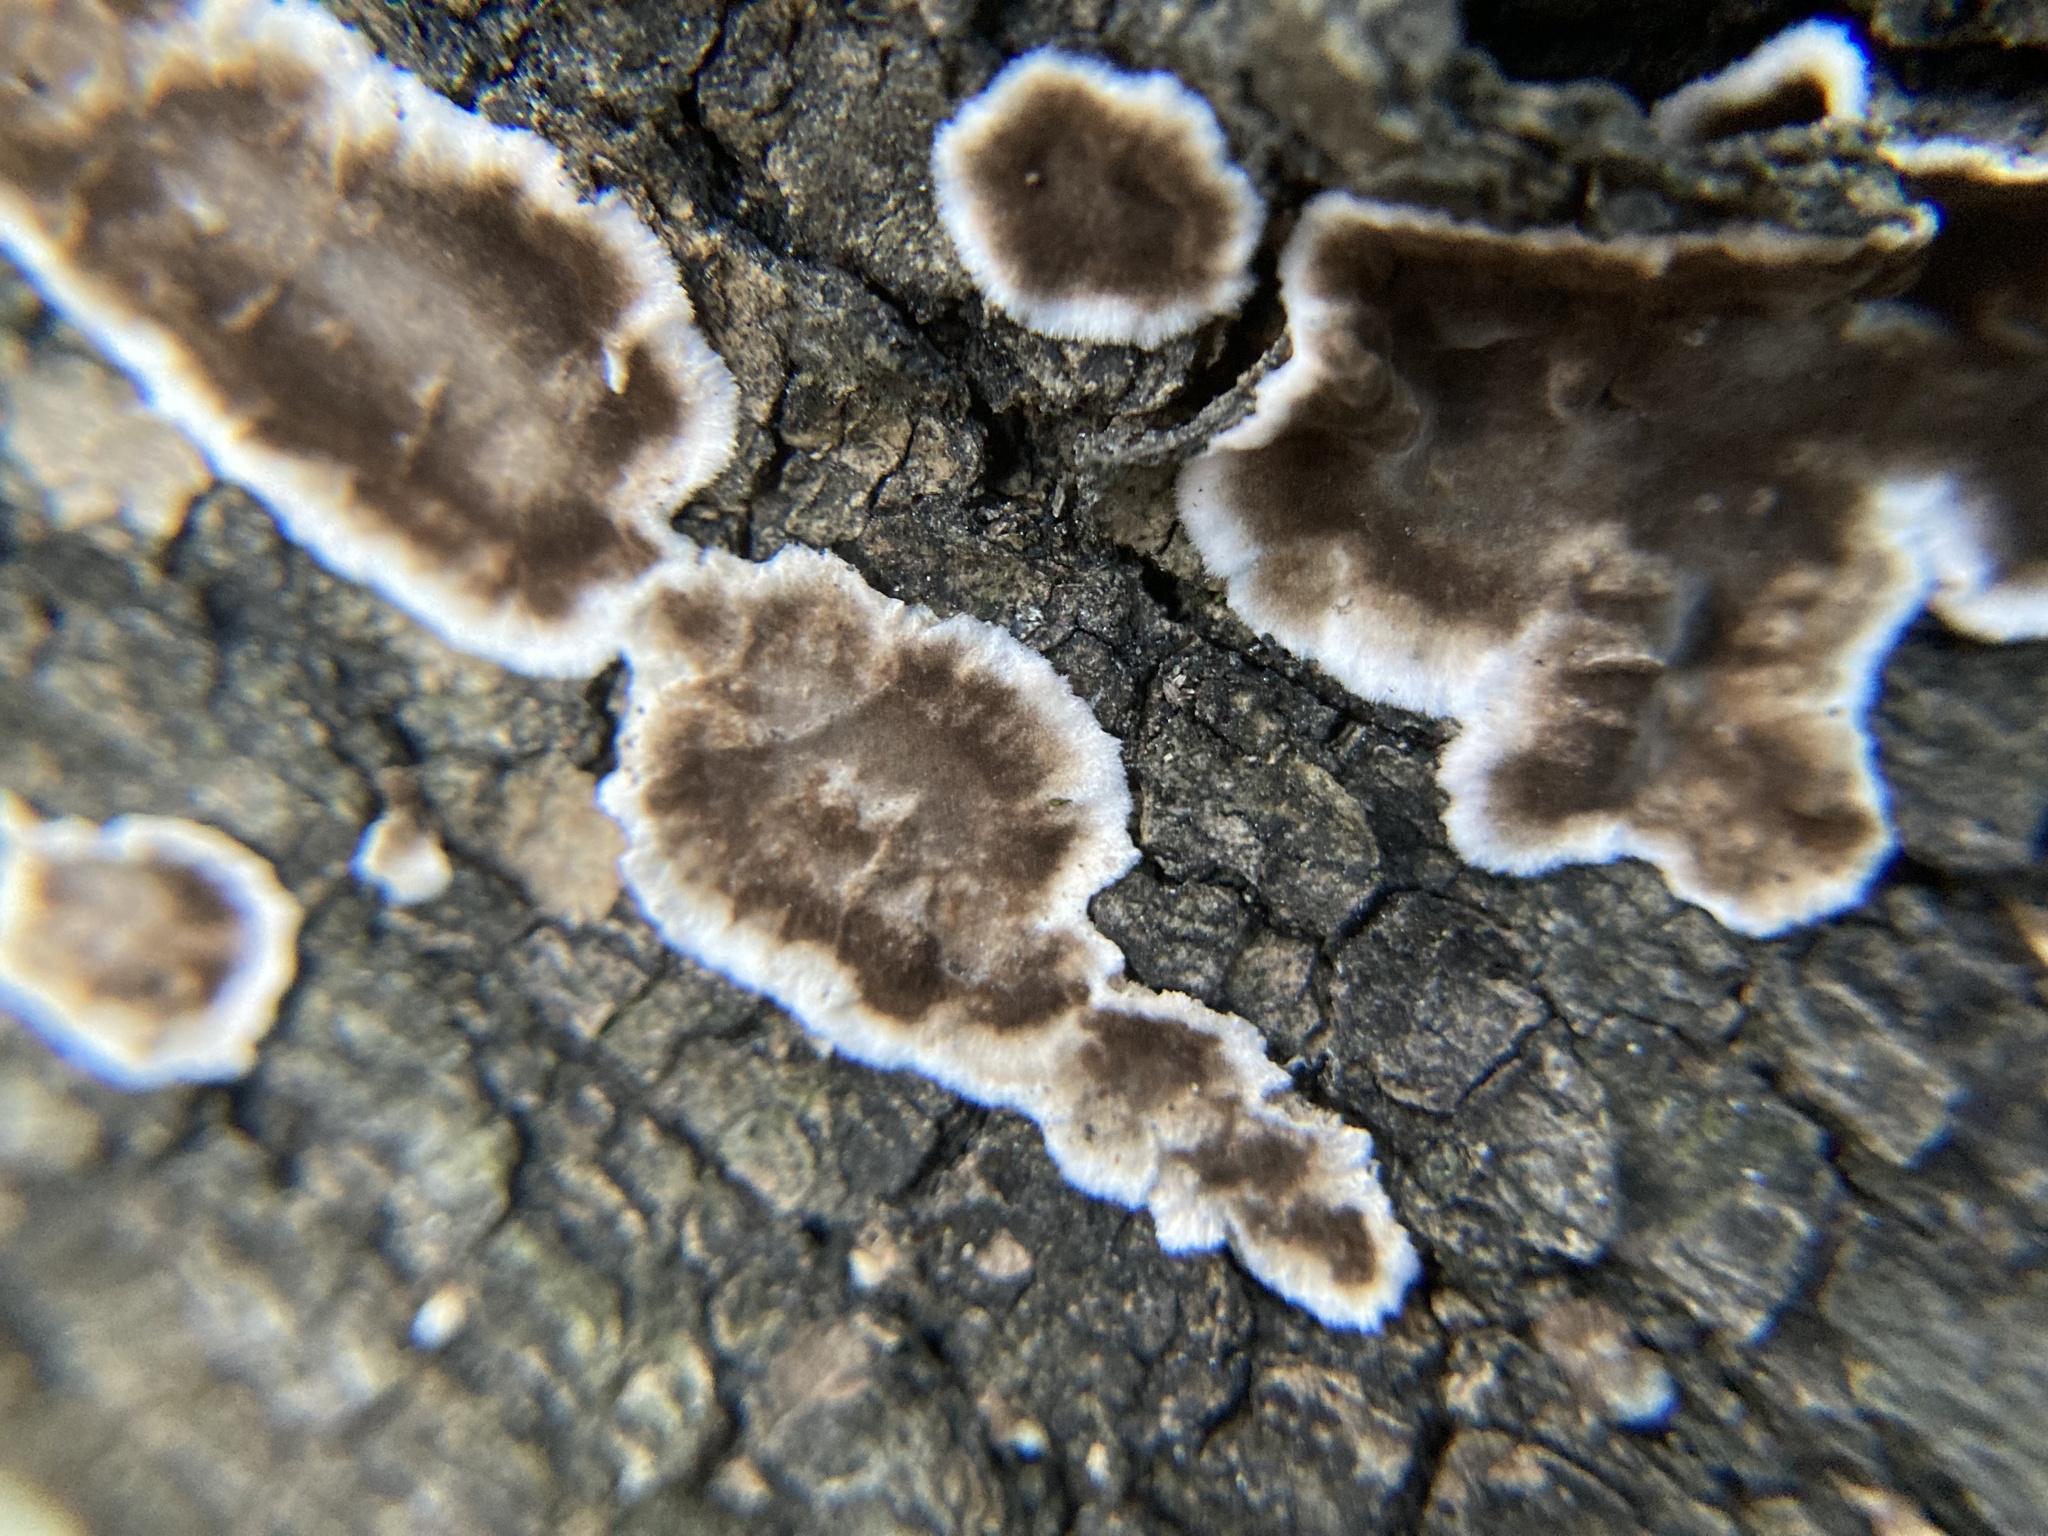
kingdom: Fungi
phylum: Basidiomycota
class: Agaricomycetes
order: Russulales
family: Peniophoraceae
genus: Peniophora
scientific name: Peniophora albobadia
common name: Giraffe spots
